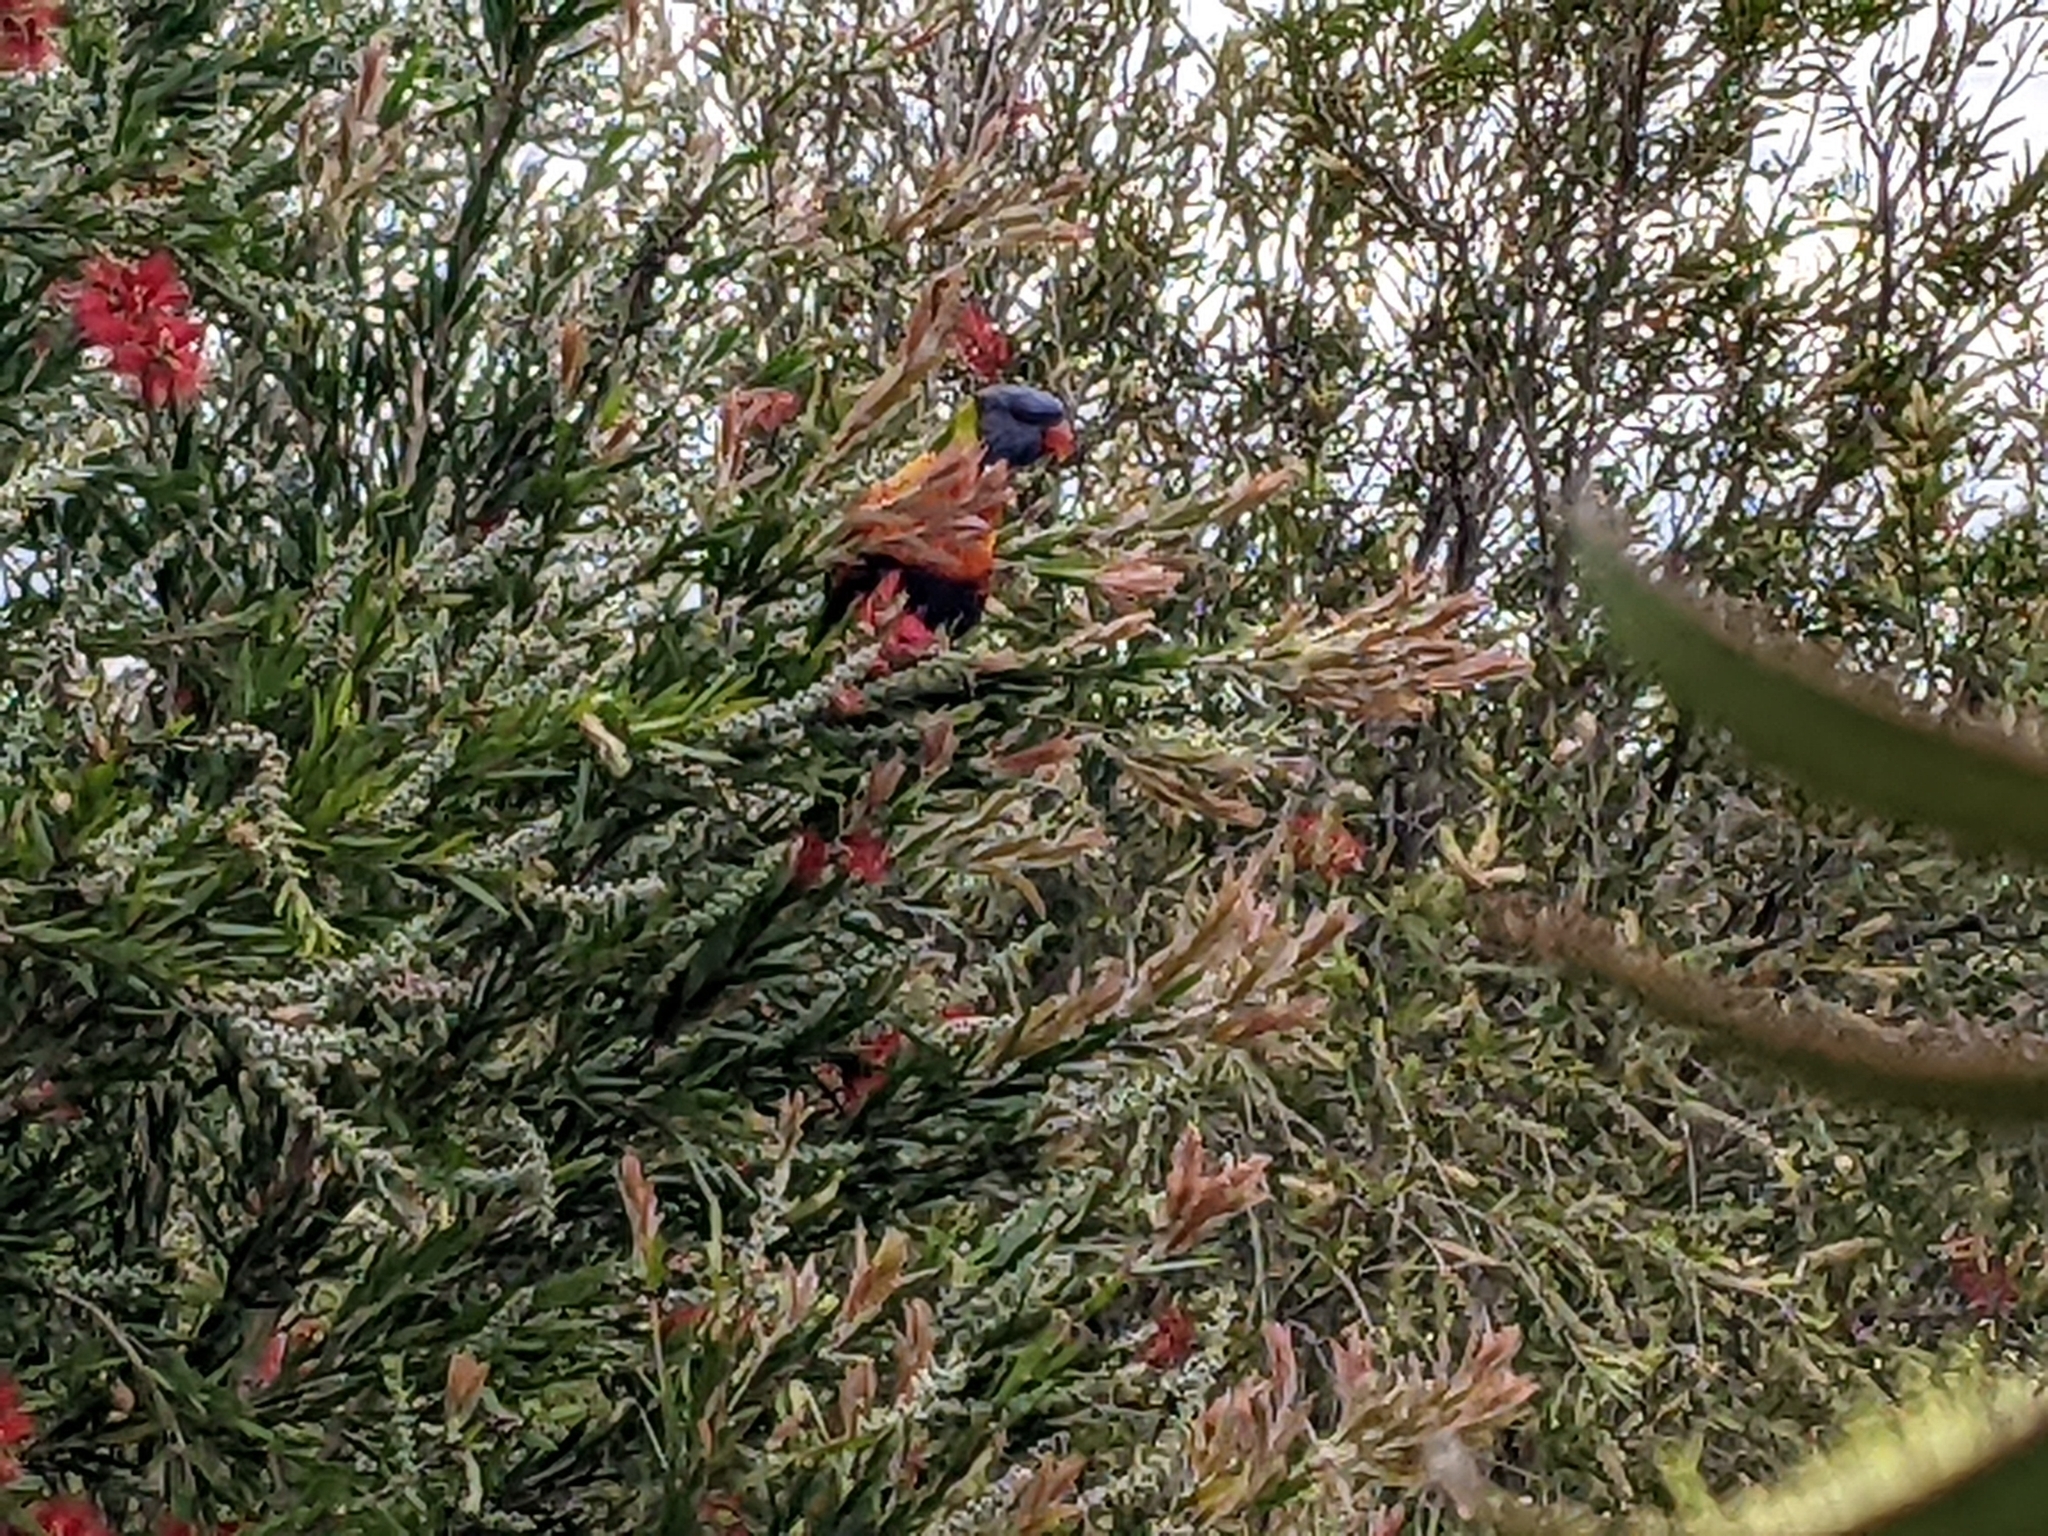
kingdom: Animalia
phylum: Chordata
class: Aves
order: Psittaciformes
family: Psittacidae
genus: Trichoglossus
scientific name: Trichoglossus haematodus
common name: Coconut lorikeet
